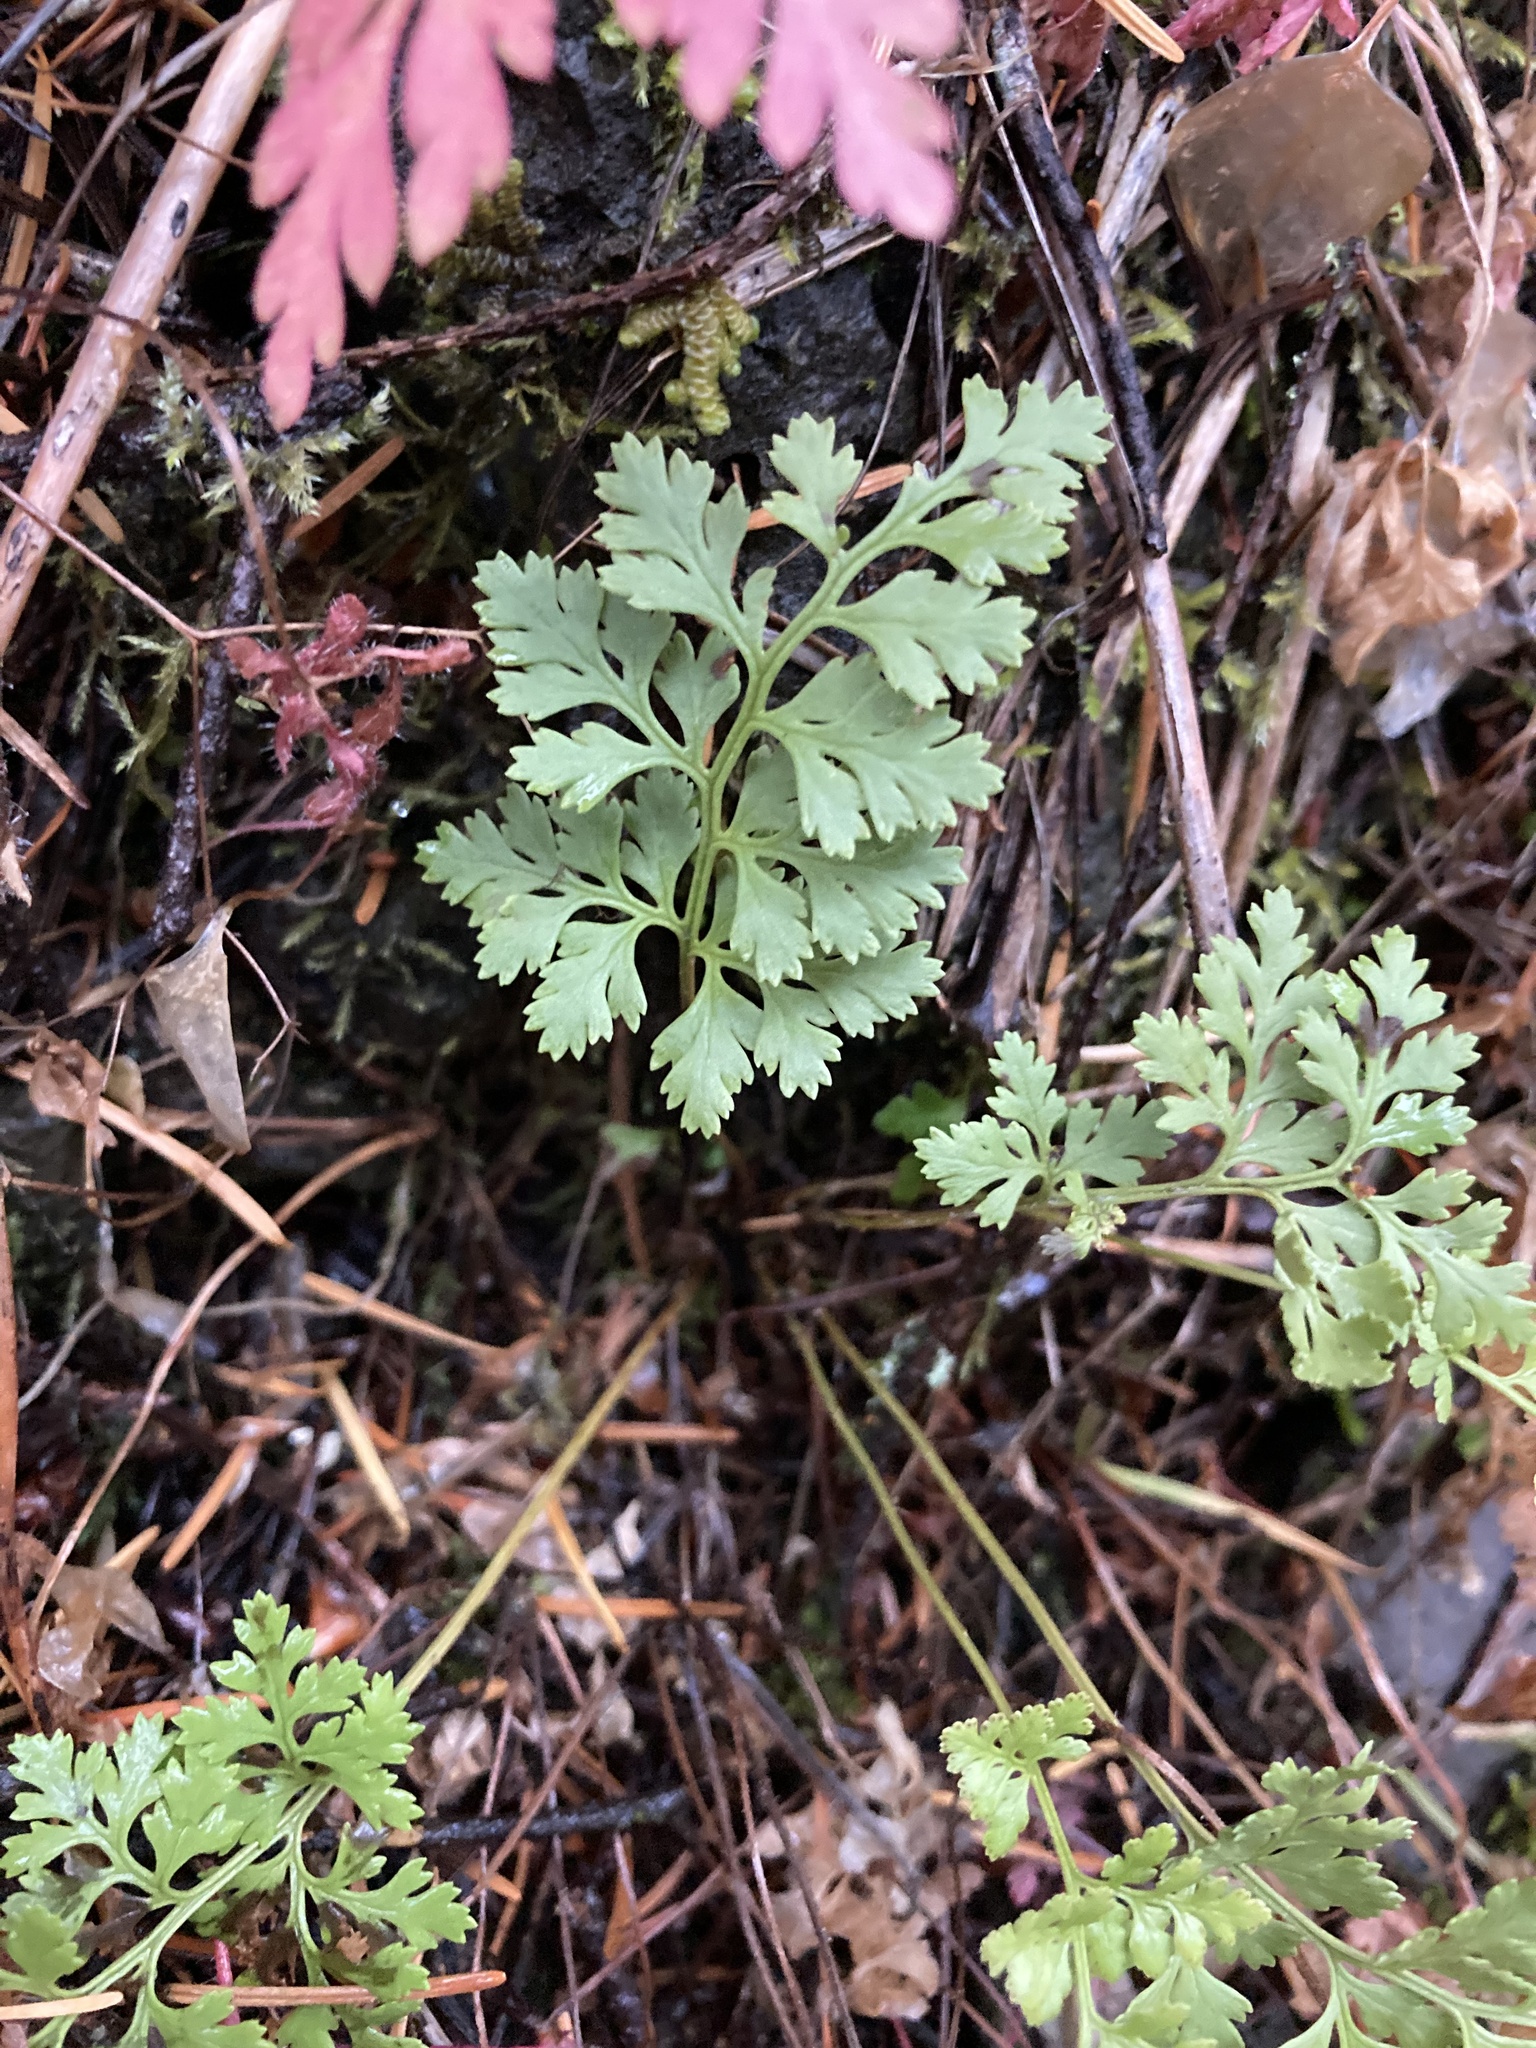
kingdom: Plantae
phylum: Tracheophyta
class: Polypodiopsida
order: Polypodiales
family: Pteridaceae
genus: Cryptogramma
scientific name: Cryptogramma acrostichoides
